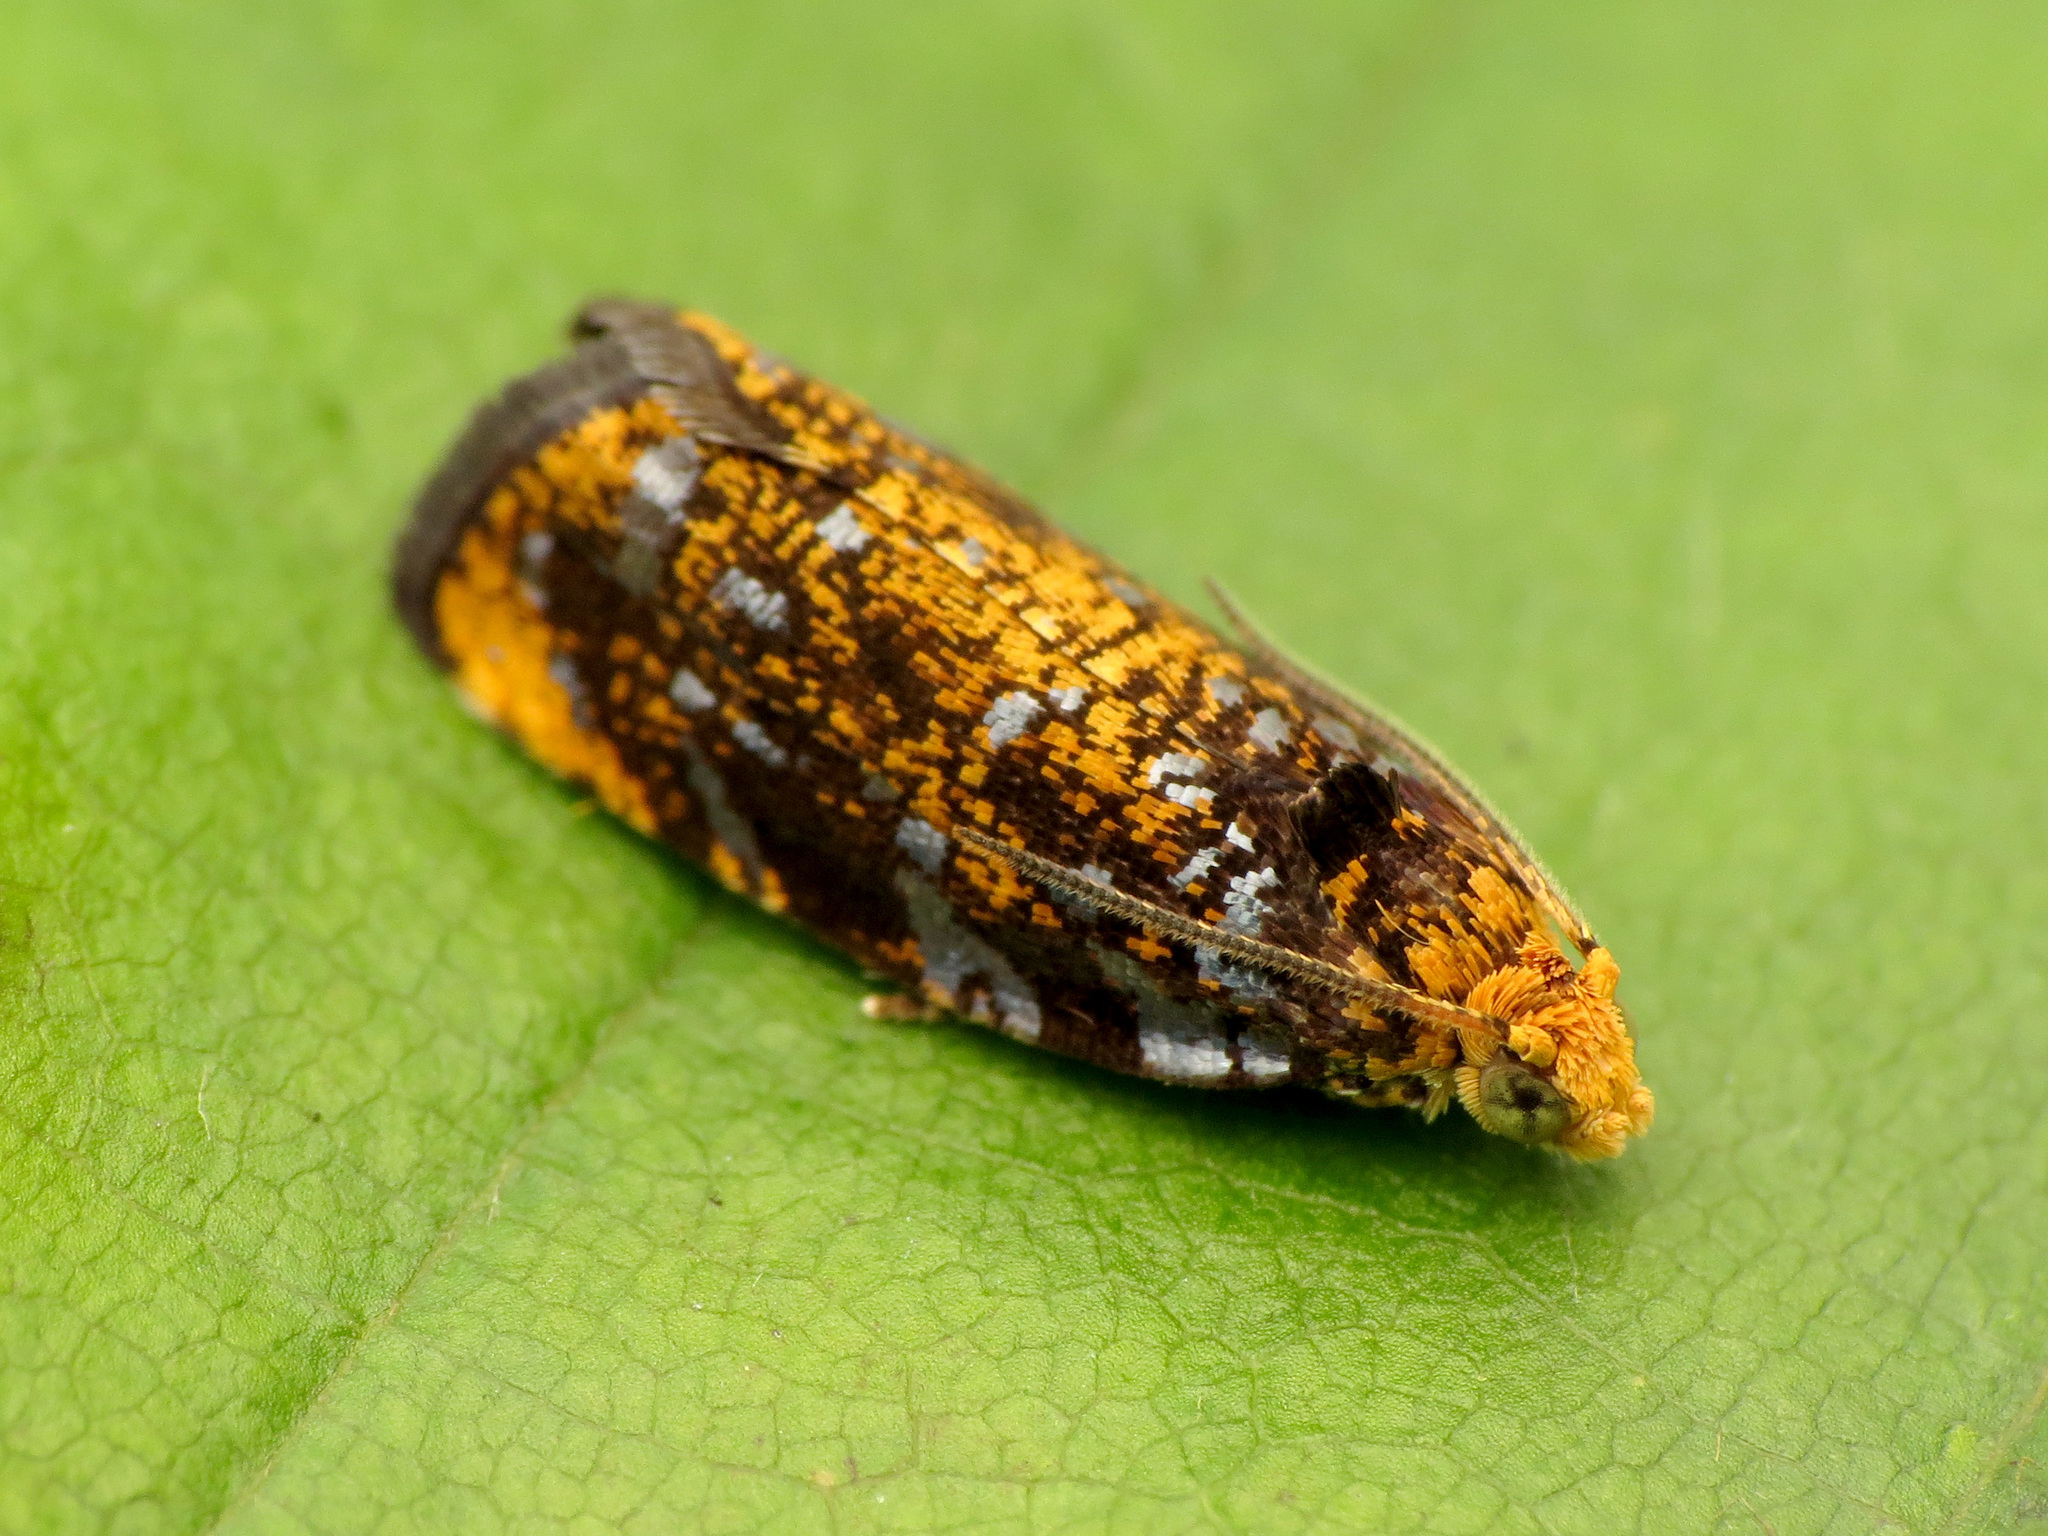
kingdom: Animalia
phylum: Arthropoda
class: Insecta
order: Lepidoptera
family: Tortricidae
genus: Olethreutes
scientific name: Olethreutes auricapitana
